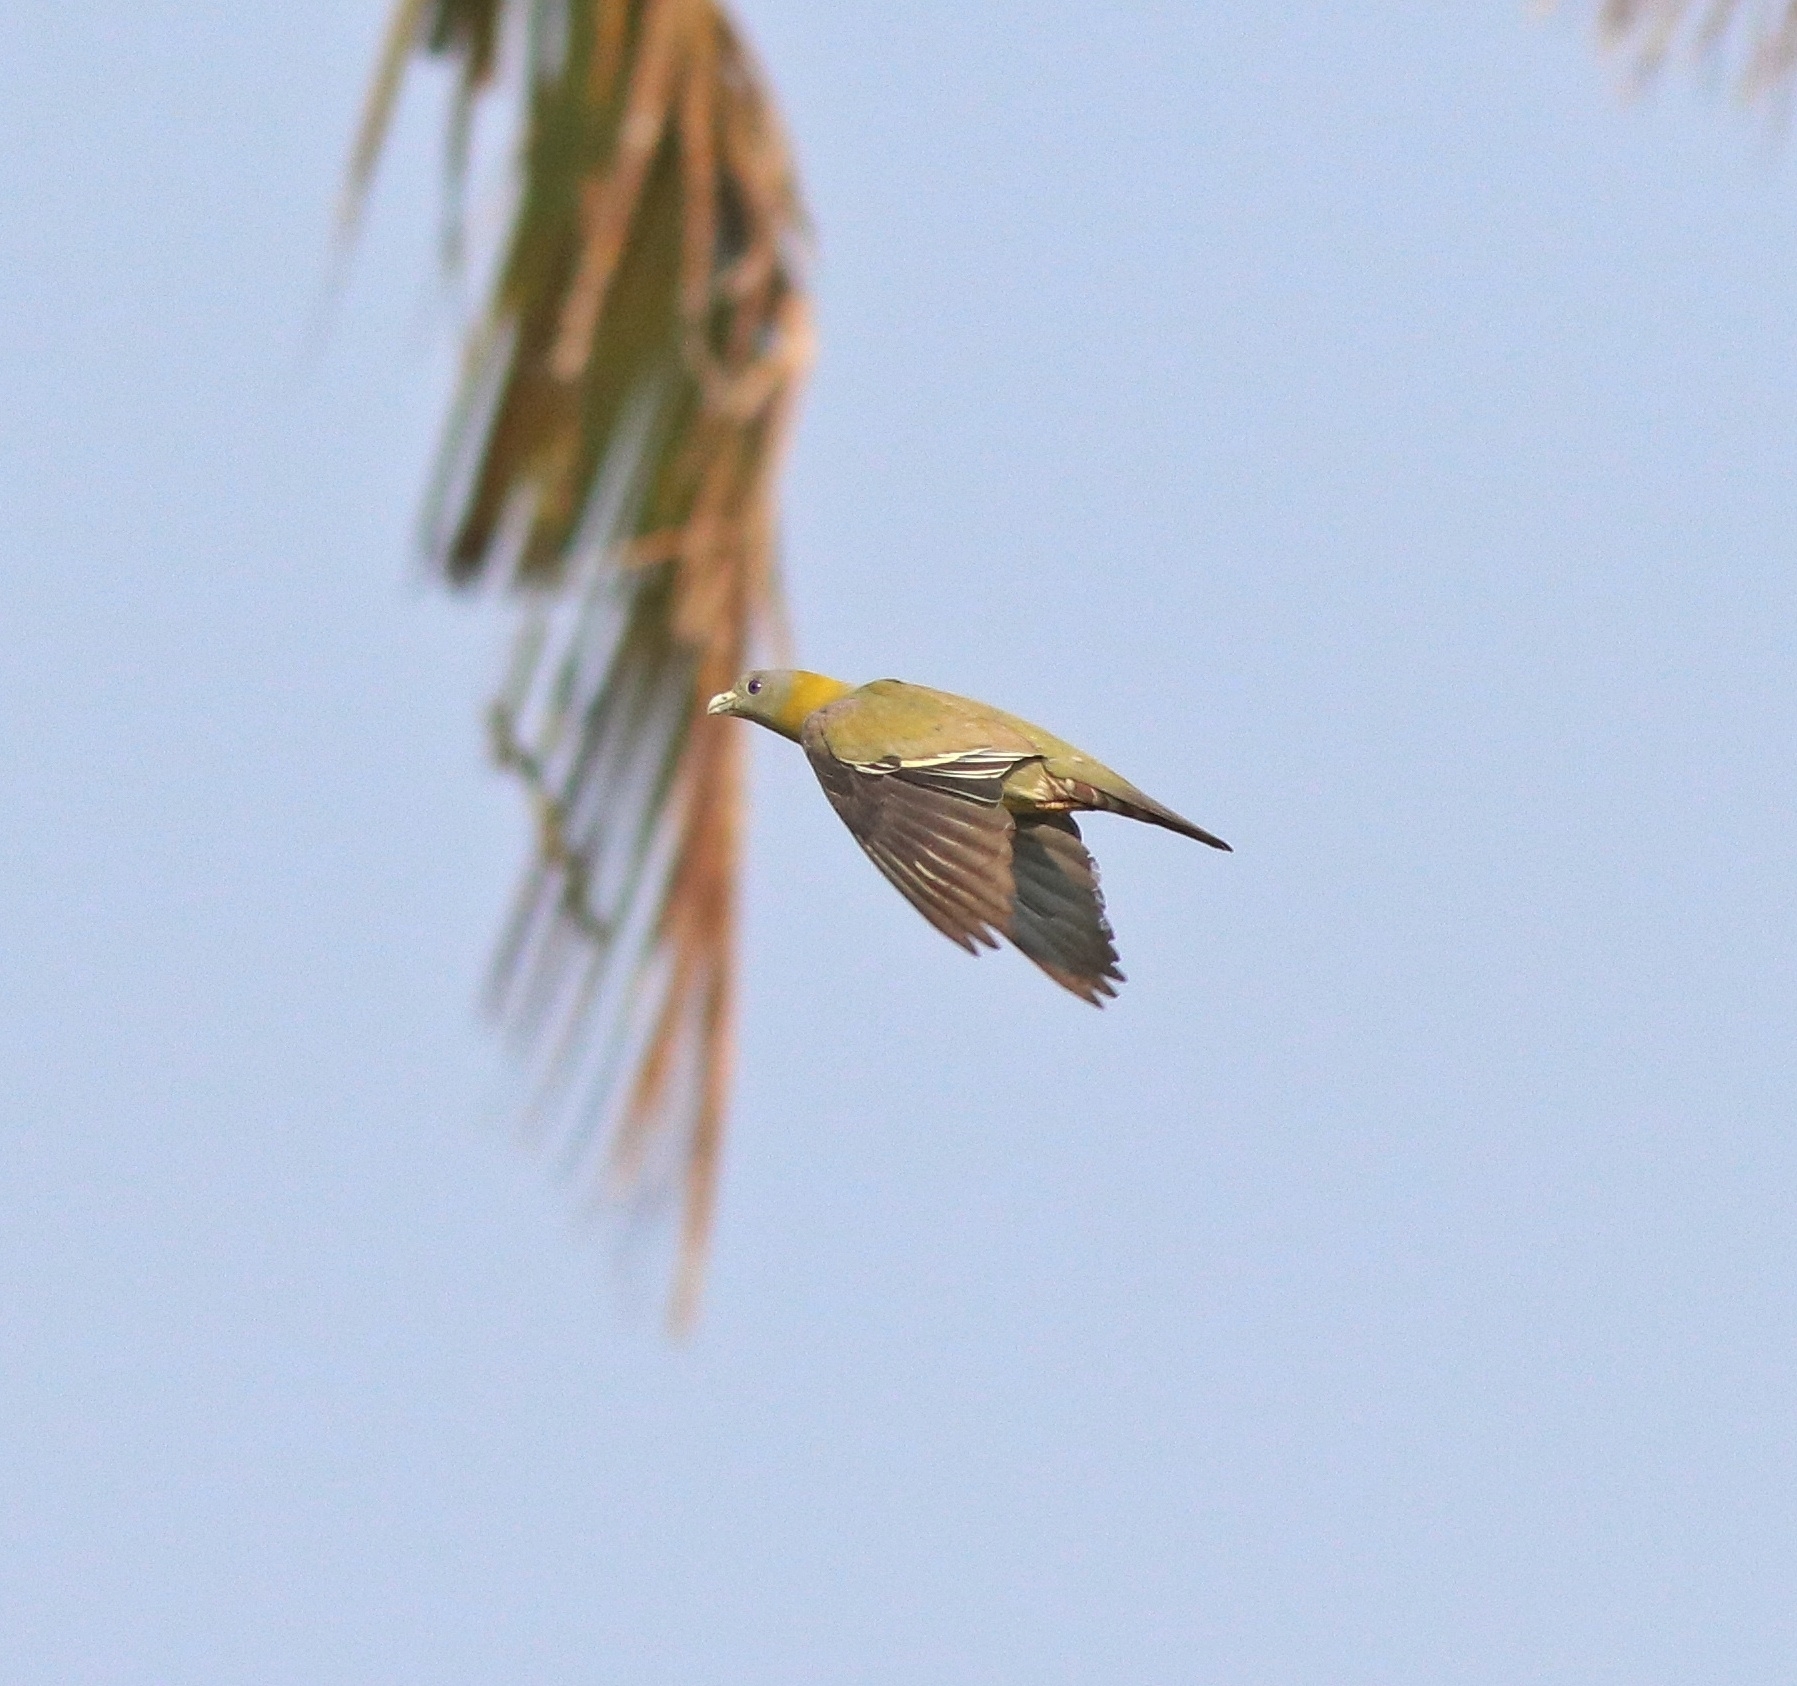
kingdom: Animalia
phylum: Chordata
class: Aves
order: Columbiformes
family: Columbidae
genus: Treron
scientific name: Treron phoenicopterus
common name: Yellow-footed green pigeon
